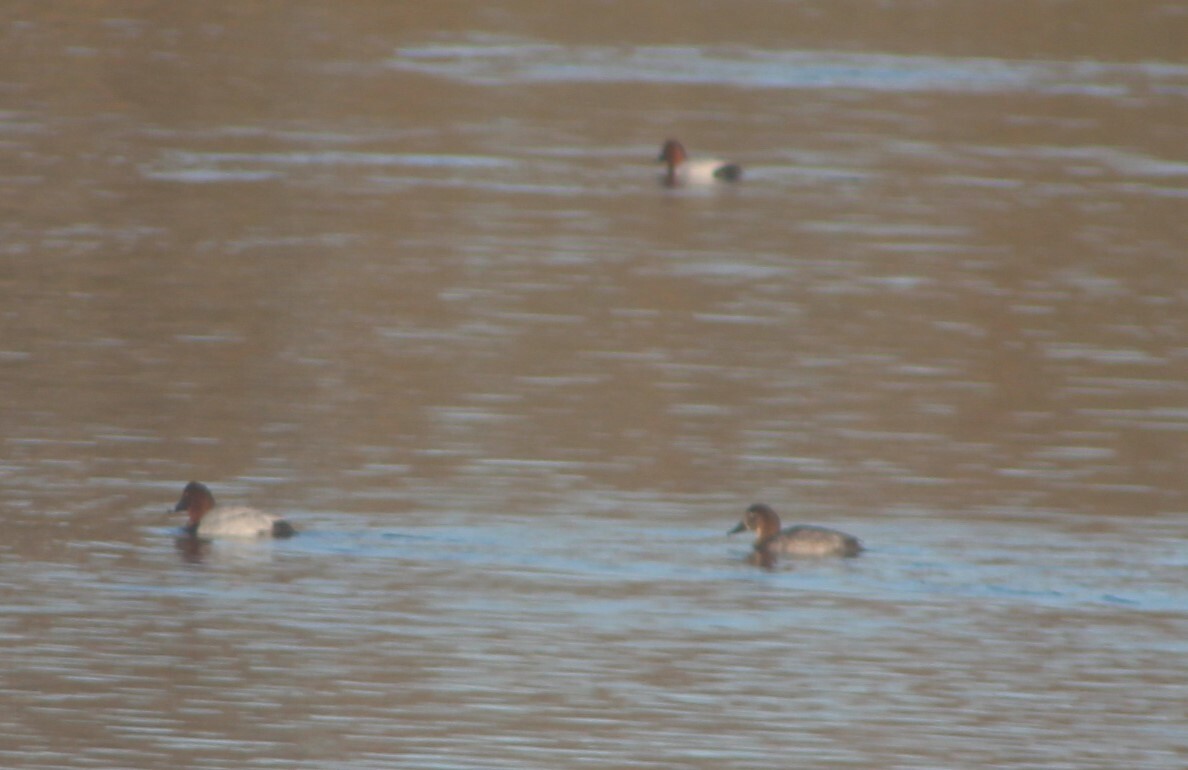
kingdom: Animalia
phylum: Chordata
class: Aves
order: Anseriformes
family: Anatidae
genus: Aythya
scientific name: Aythya ferina
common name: Common pochard
